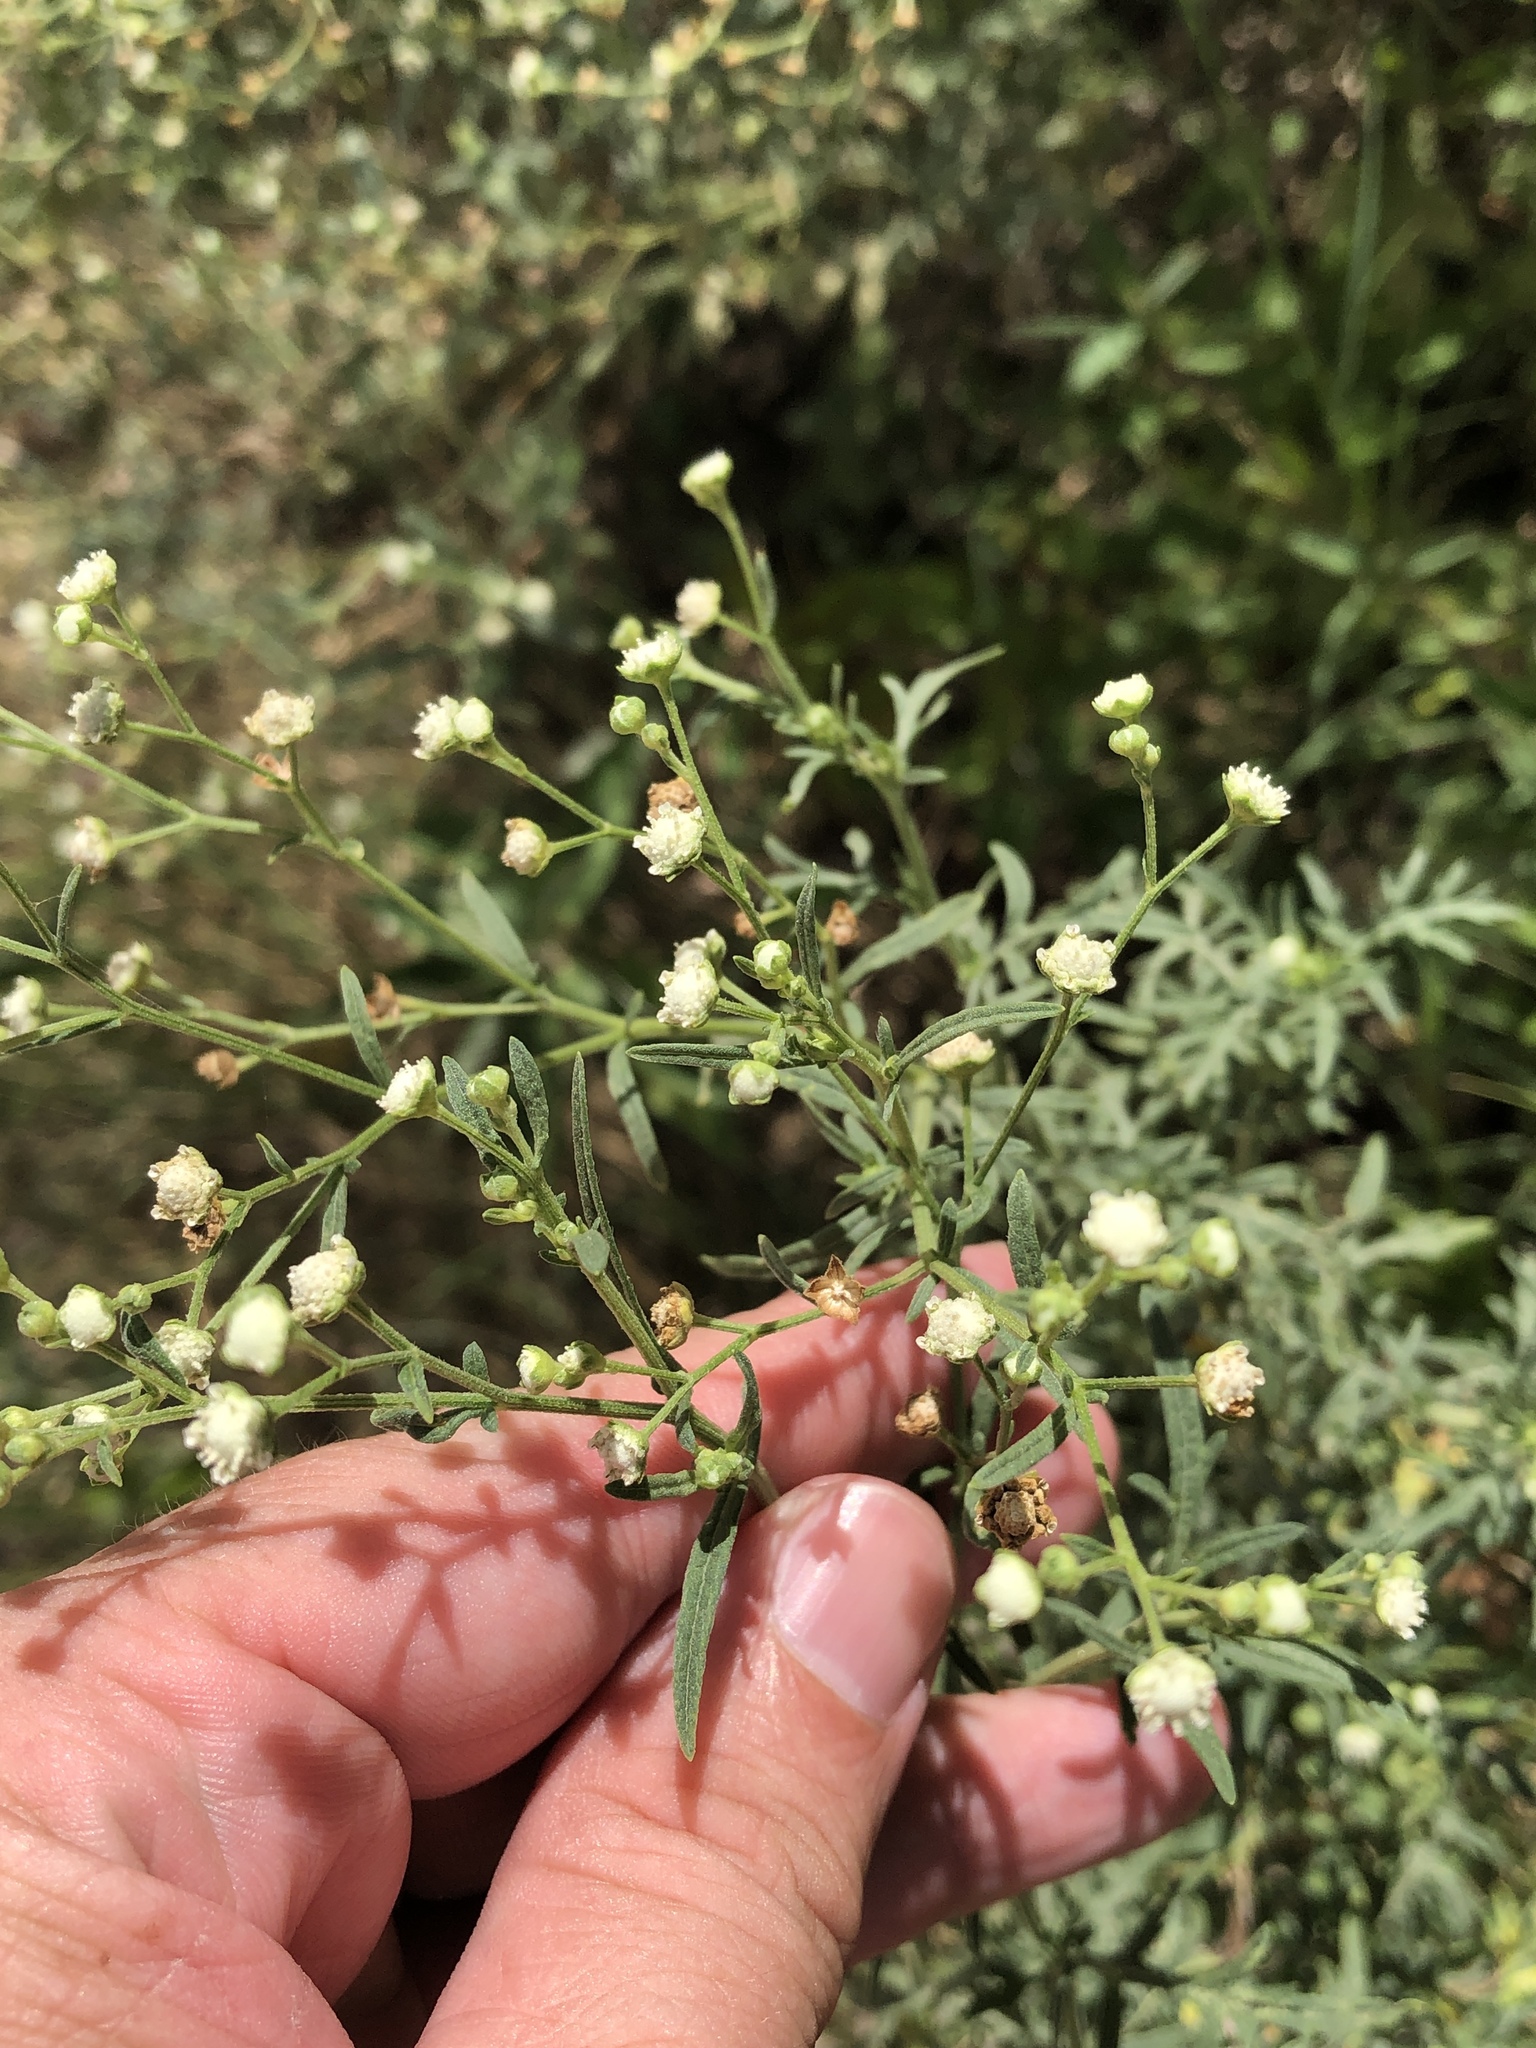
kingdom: Plantae
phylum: Tracheophyta
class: Magnoliopsida
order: Asterales
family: Asteraceae
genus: Parthenium
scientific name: Parthenium hysterophorus
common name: Santa maria feverfew
